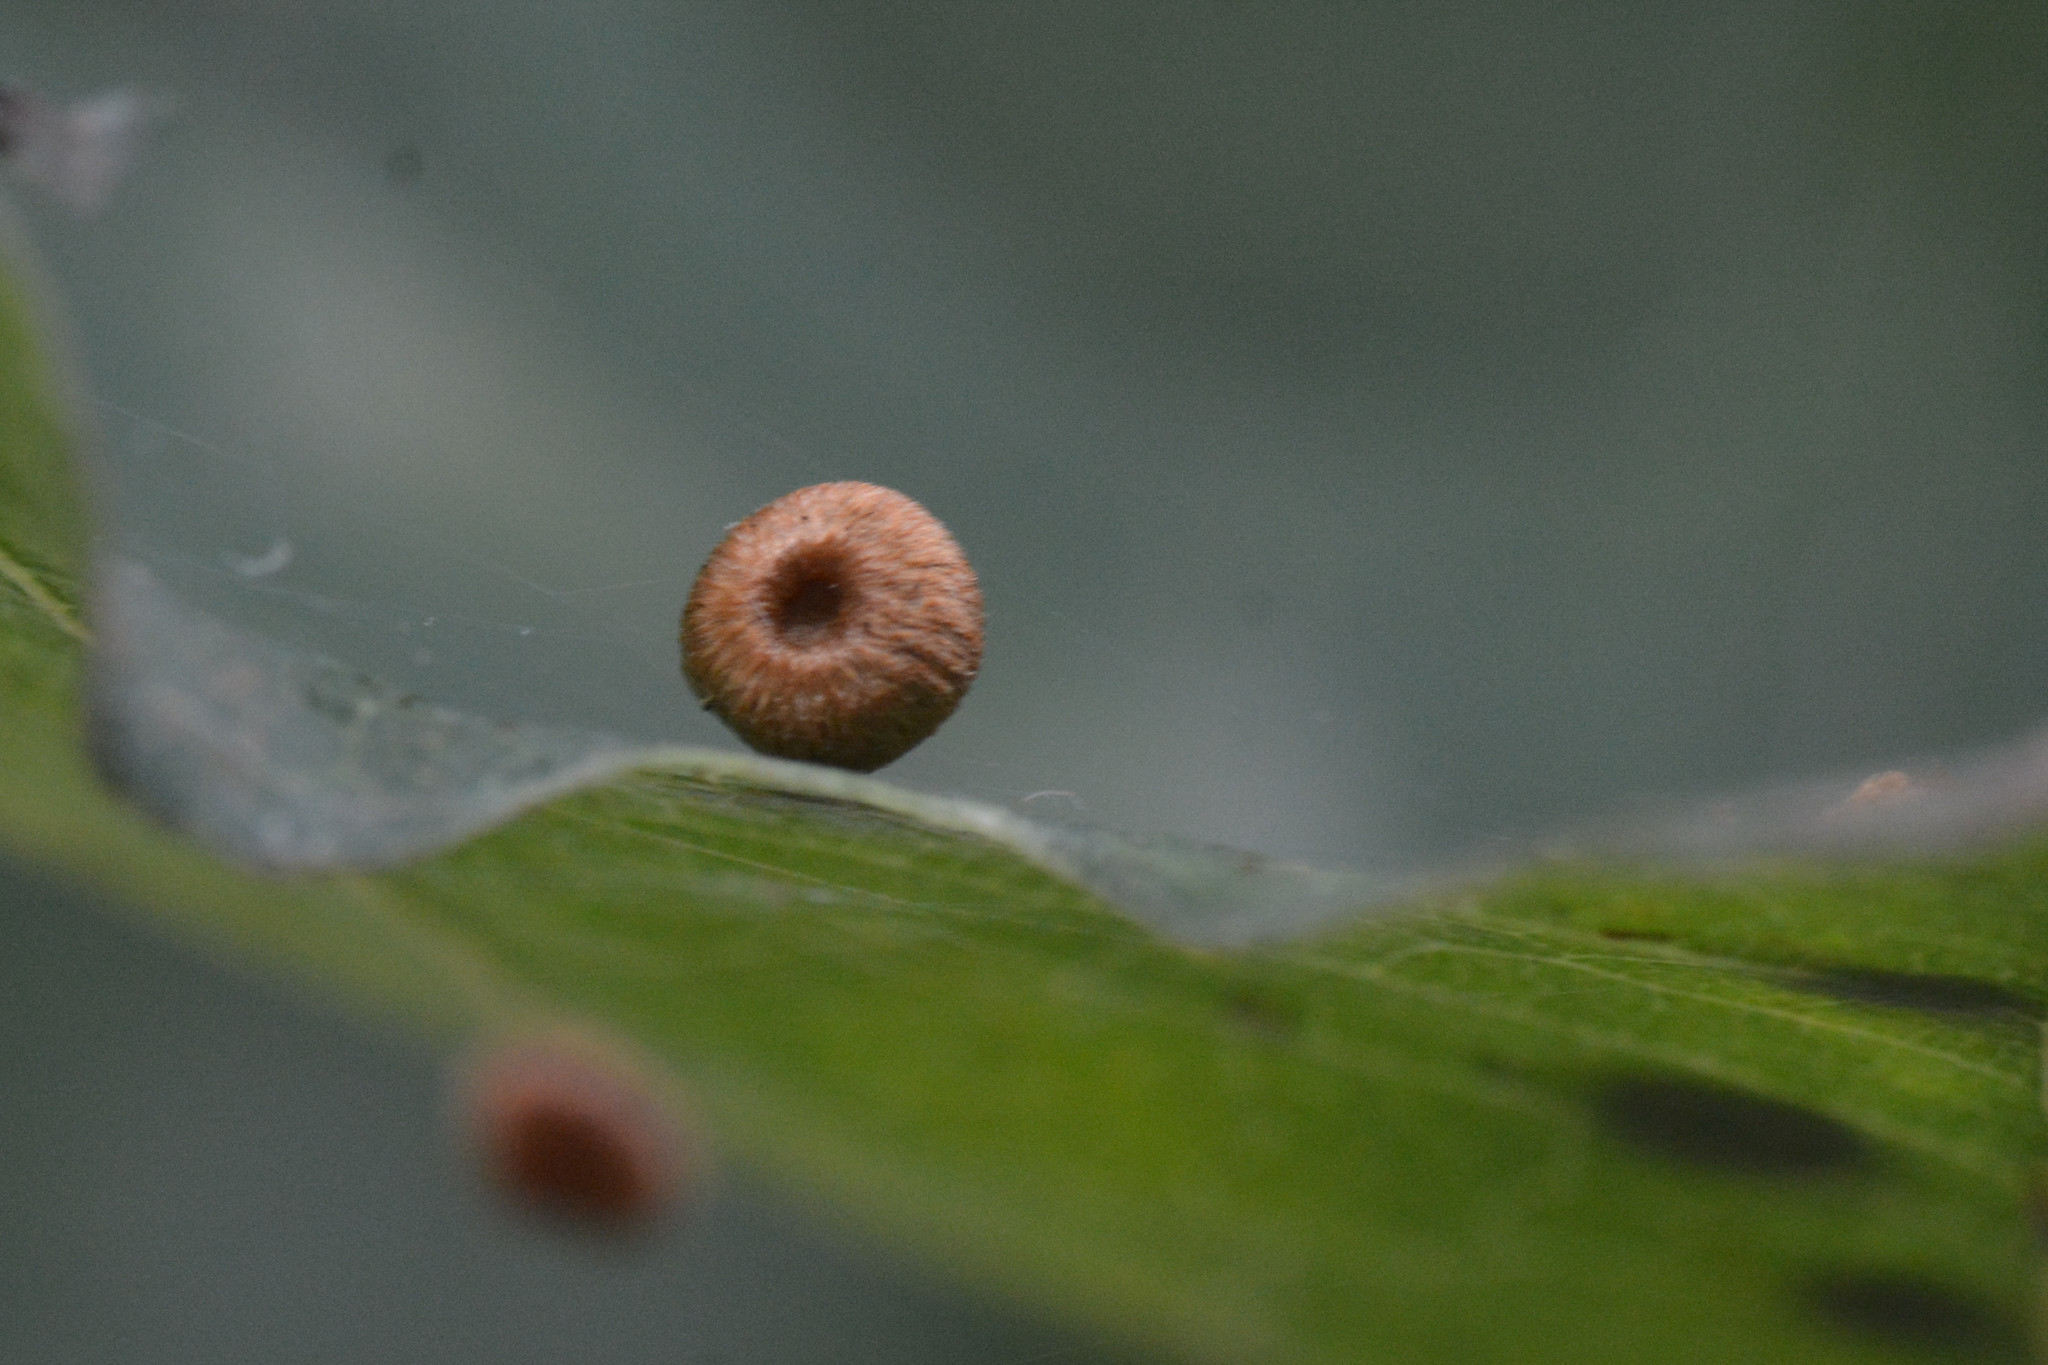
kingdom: Animalia
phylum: Arthropoda
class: Insecta
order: Hymenoptera
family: Cynipidae
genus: Neuroterus
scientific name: Neuroterus numismalis
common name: Silk-button spangle gall
